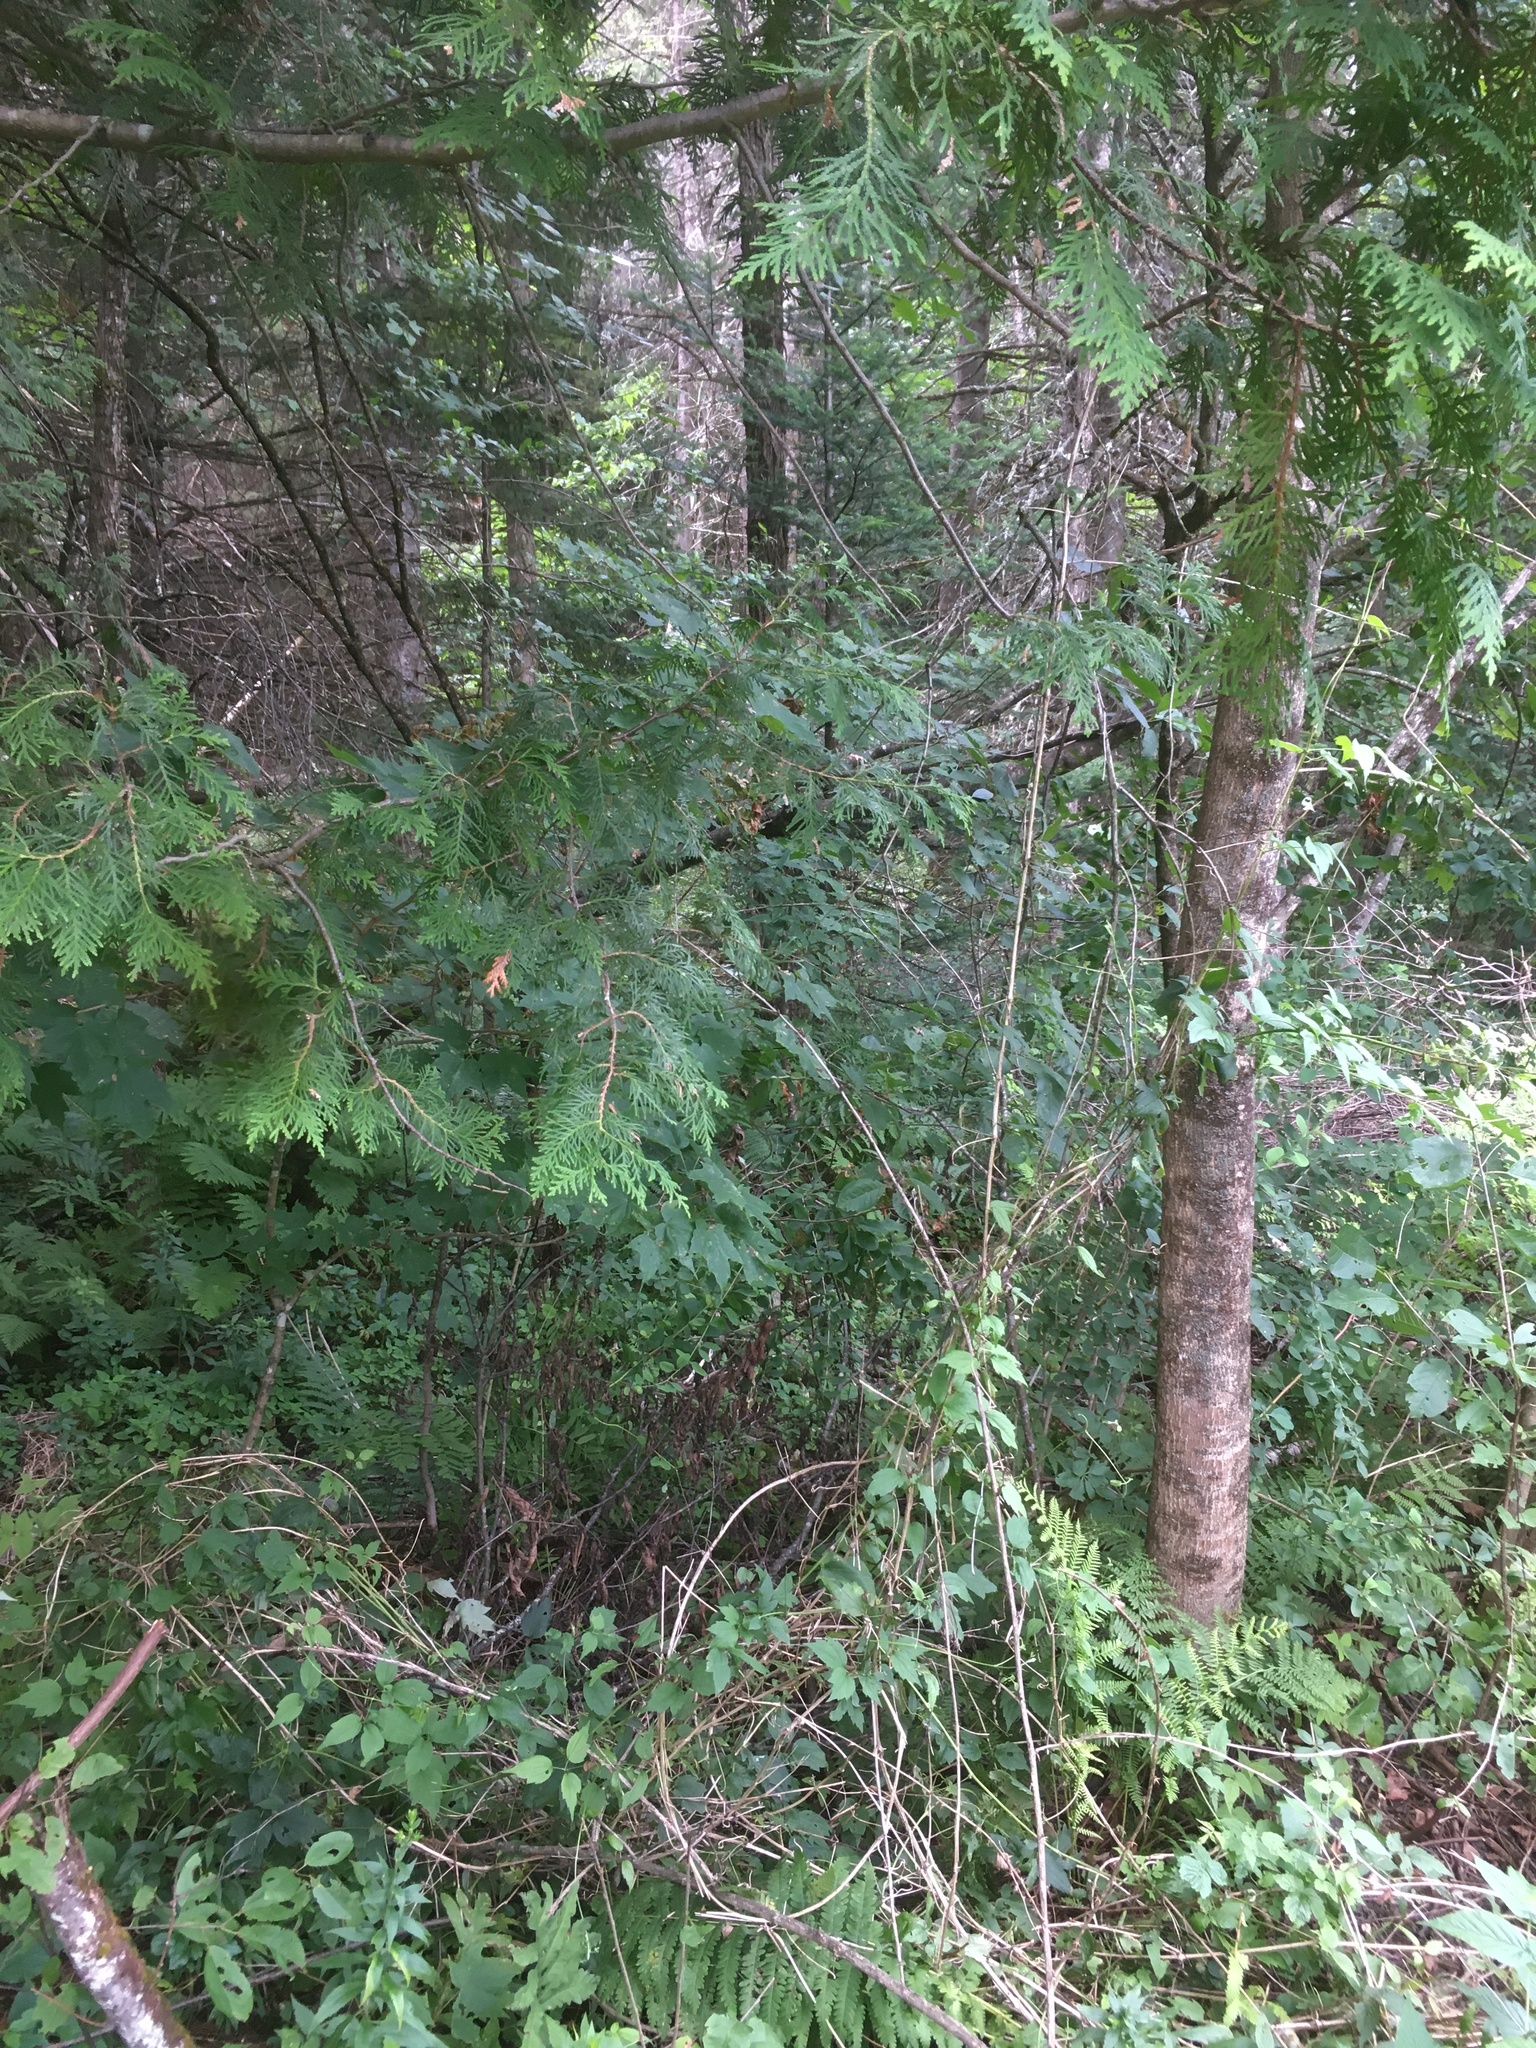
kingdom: Plantae
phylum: Tracheophyta
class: Pinopsida
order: Pinales
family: Cupressaceae
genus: Thuja
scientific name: Thuja occidentalis
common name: Northern white-cedar
